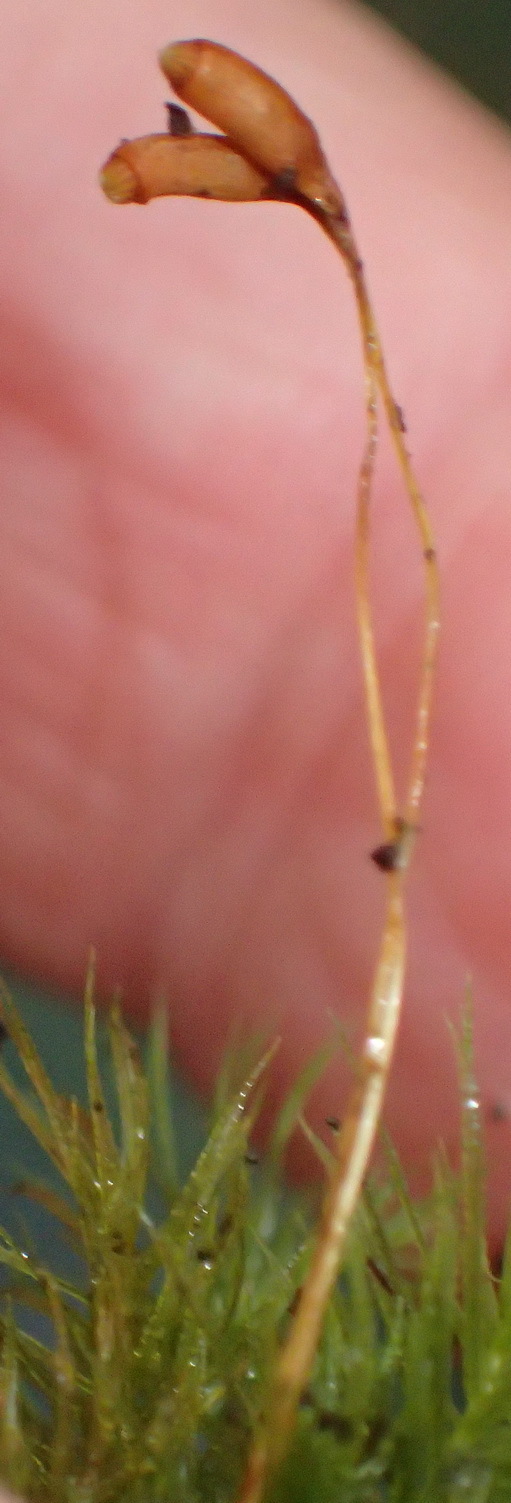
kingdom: Plantae
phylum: Bryophyta
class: Bryopsida
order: Rhizogoniales
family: Calomniaceae
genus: Pyrrhobryum
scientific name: Pyrrhobryum spiniforme
